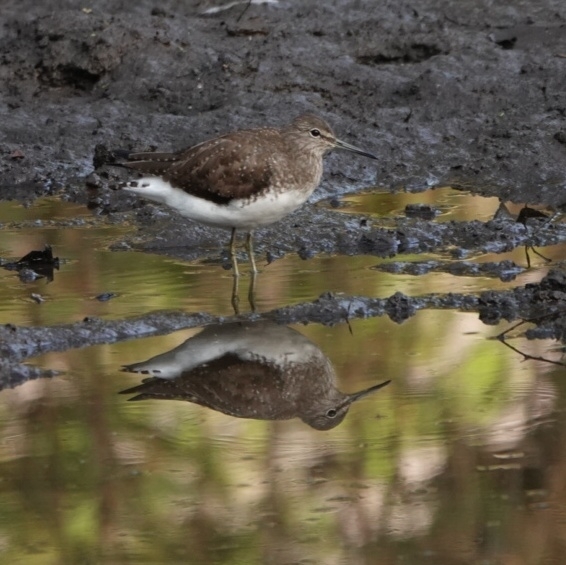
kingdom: Animalia
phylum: Chordata
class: Aves
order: Charadriiformes
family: Scolopacidae
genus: Tringa
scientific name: Tringa ochropus
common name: Green sandpiper
